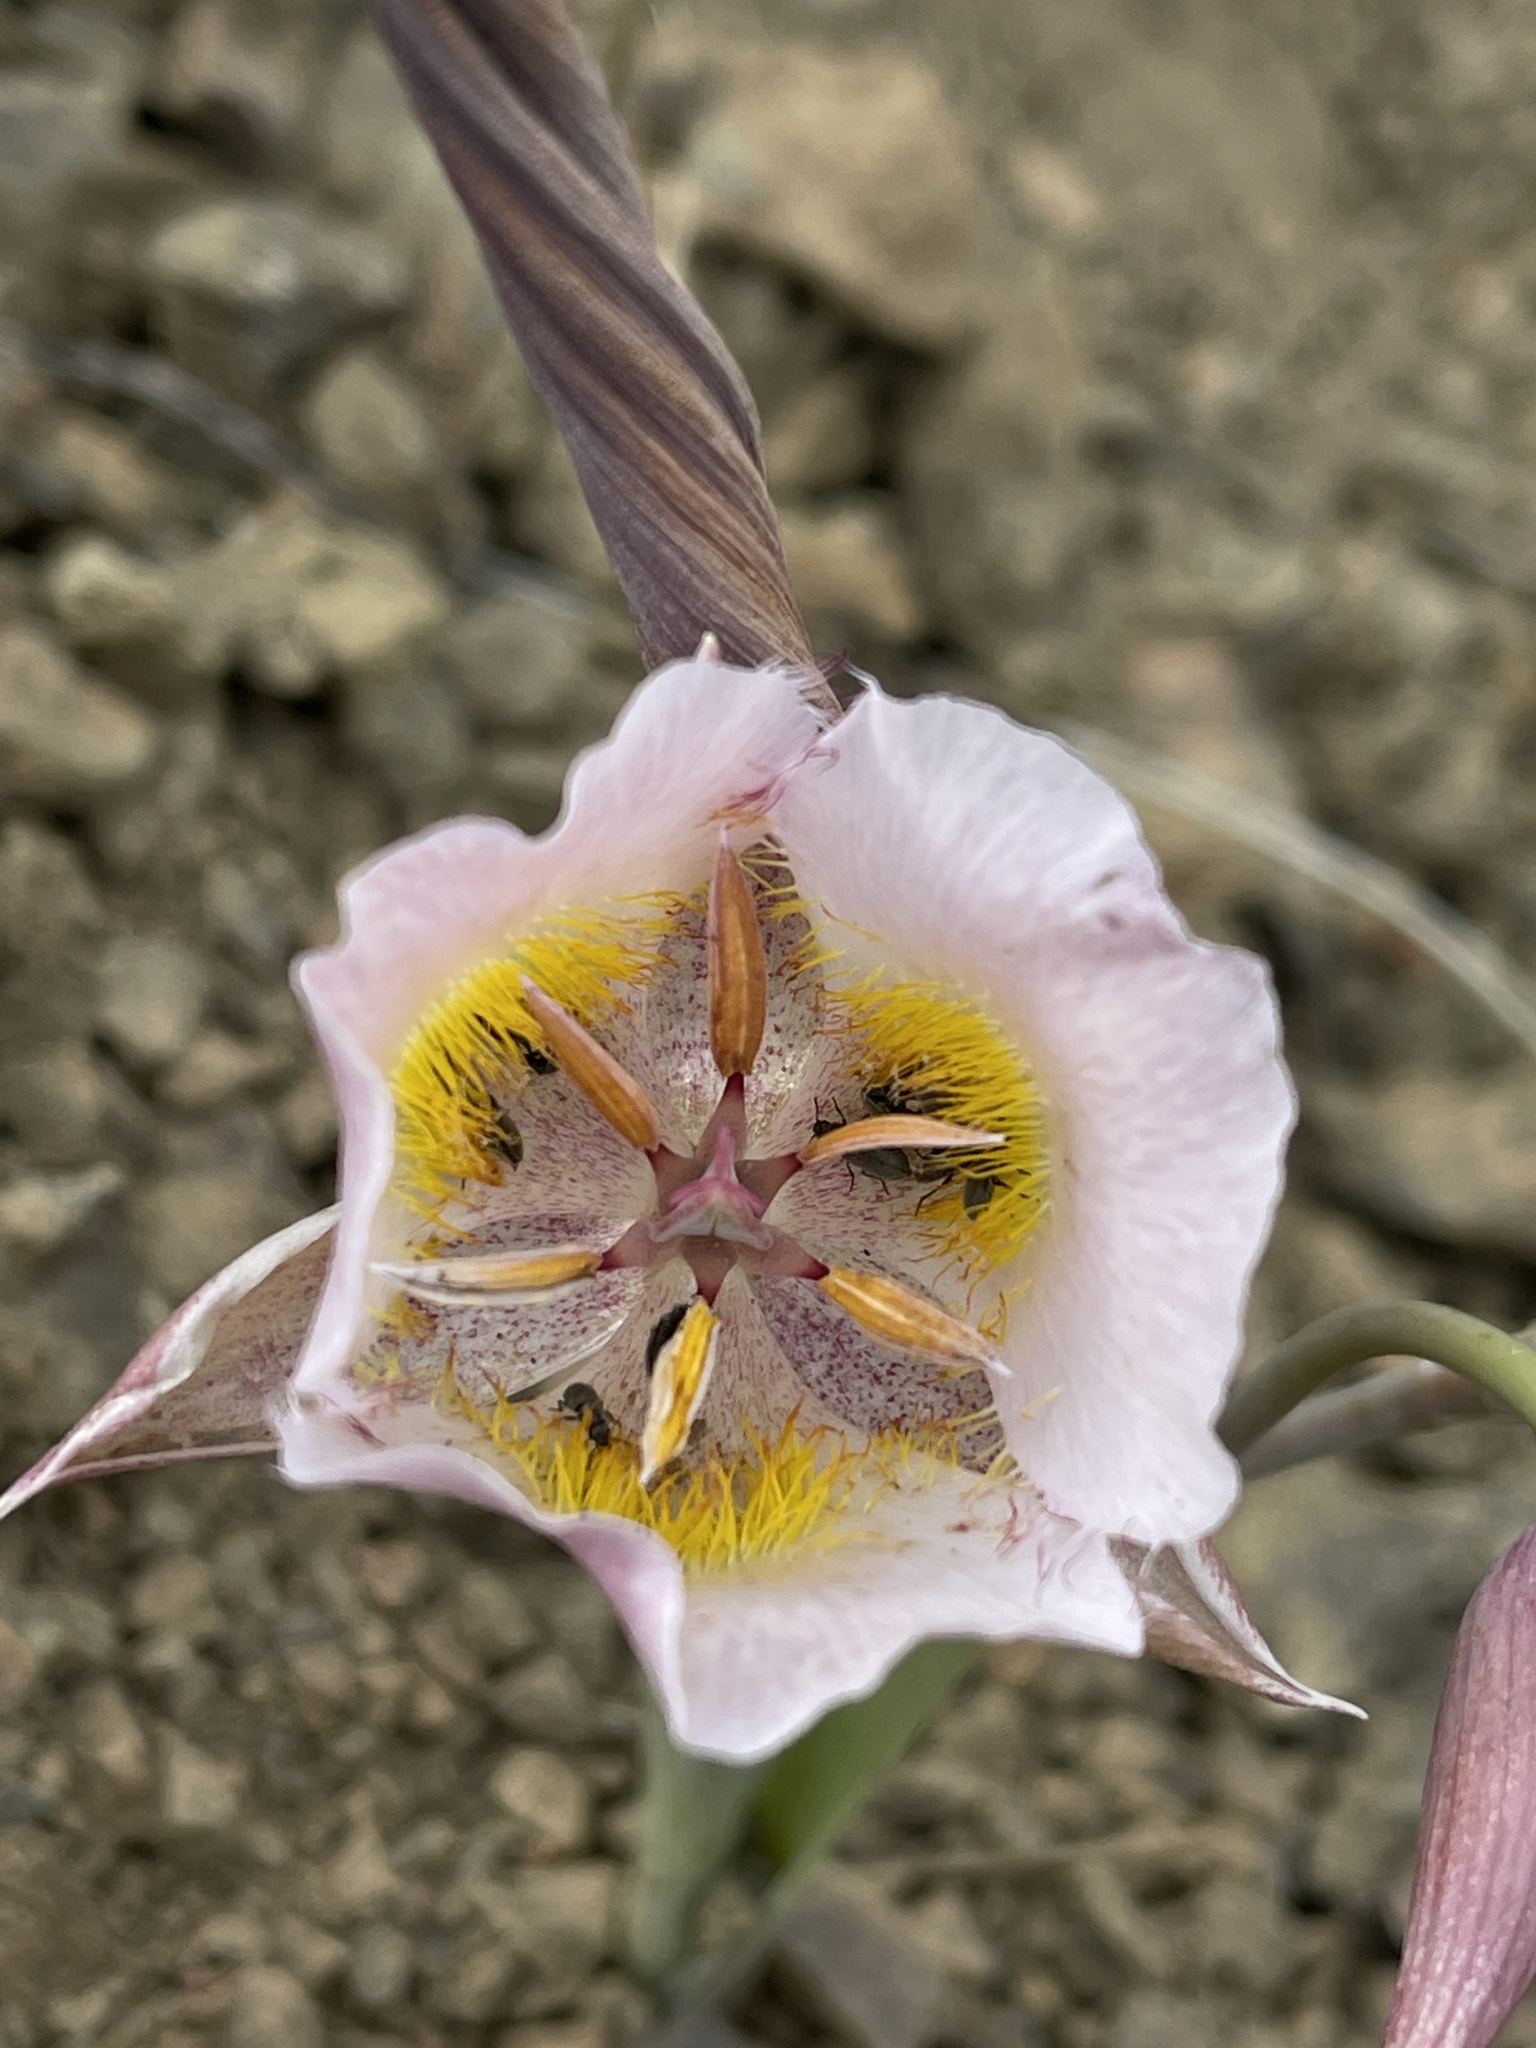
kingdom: Plantae
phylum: Tracheophyta
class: Liliopsida
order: Liliales
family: Liliaceae
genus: Calochortus
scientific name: Calochortus persistens
